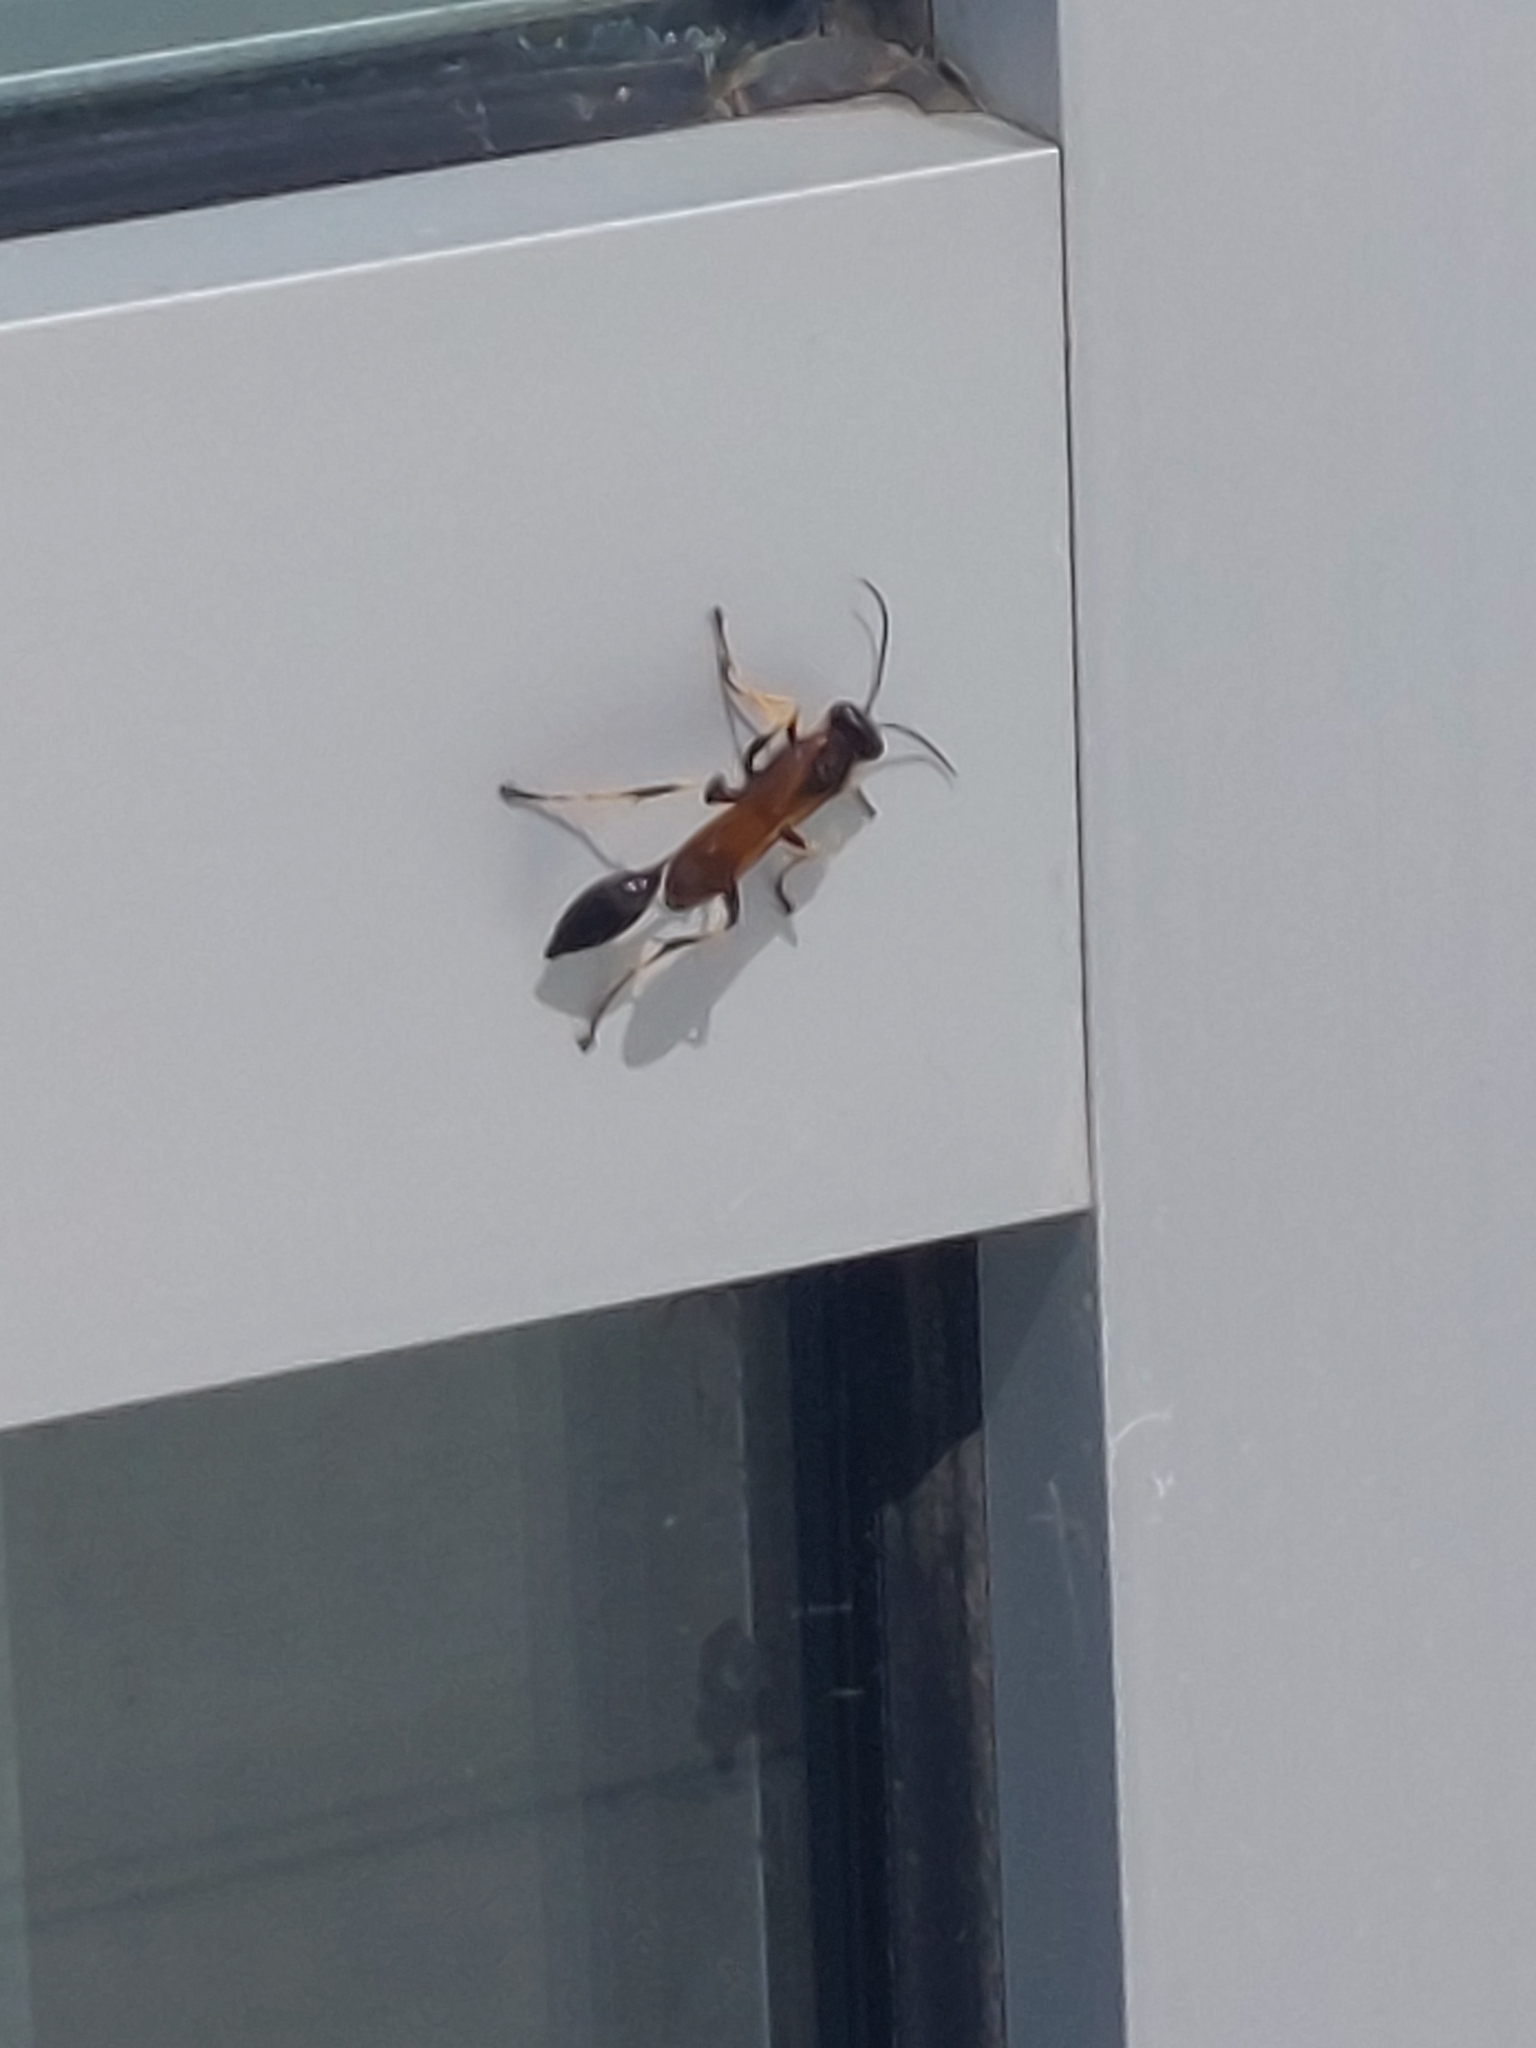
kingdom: Animalia
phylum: Arthropoda
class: Insecta
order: Hymenoptera
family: Sphecidae
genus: Sceliphron
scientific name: Sceliphron caementarium
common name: Mud dauber
